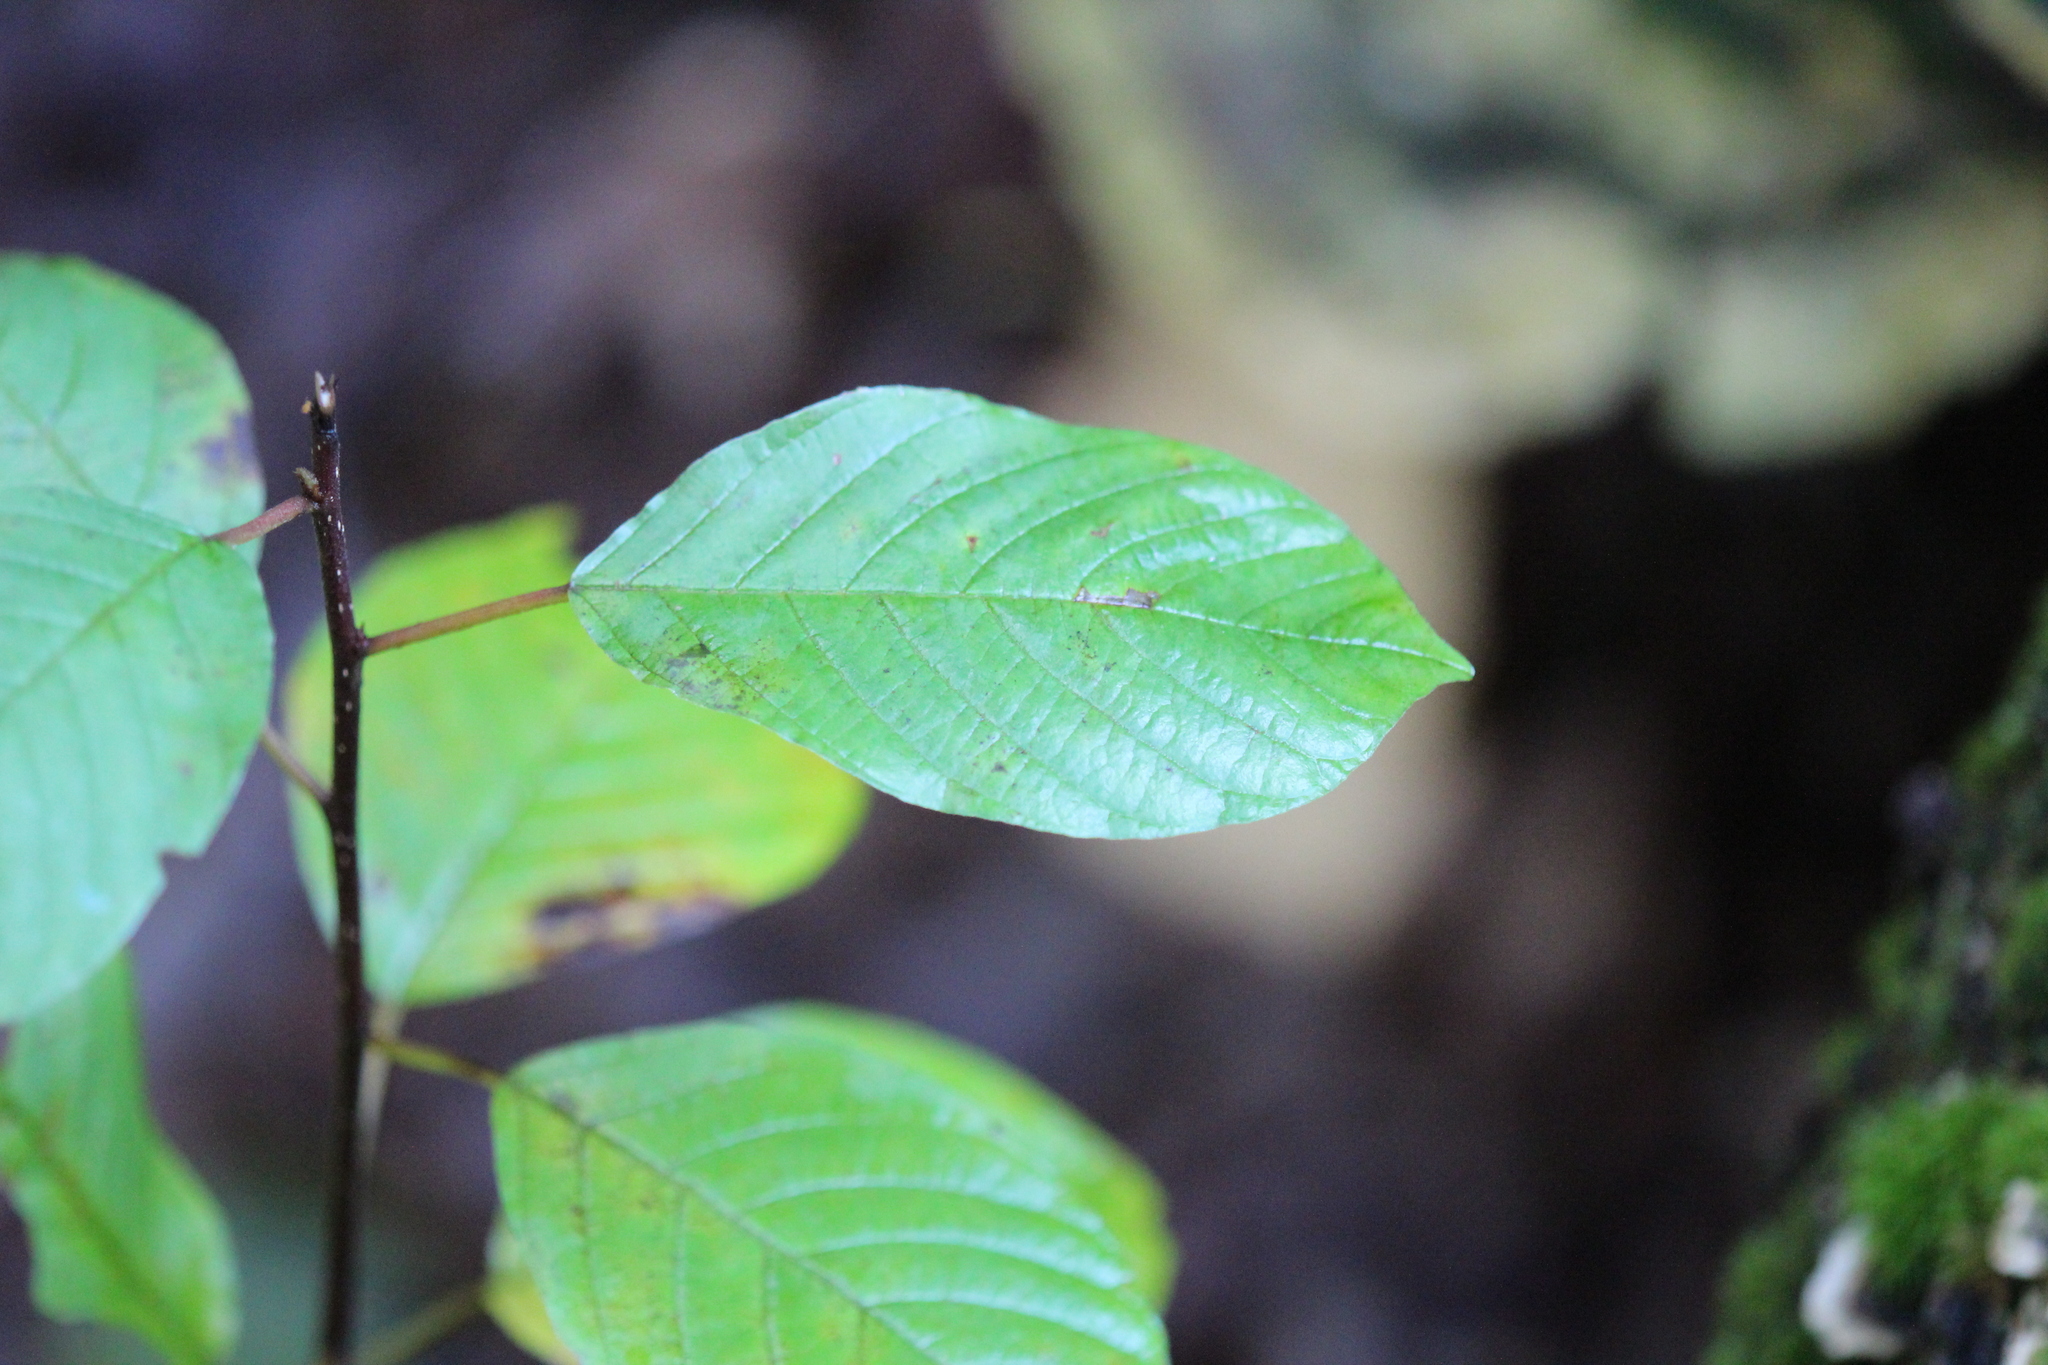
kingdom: Plantae
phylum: Tracheophyta
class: Magnoliopsida
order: Rosales
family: Rhamnaceae
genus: Frangula
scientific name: Frangula alnus
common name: Alder buckthorn
